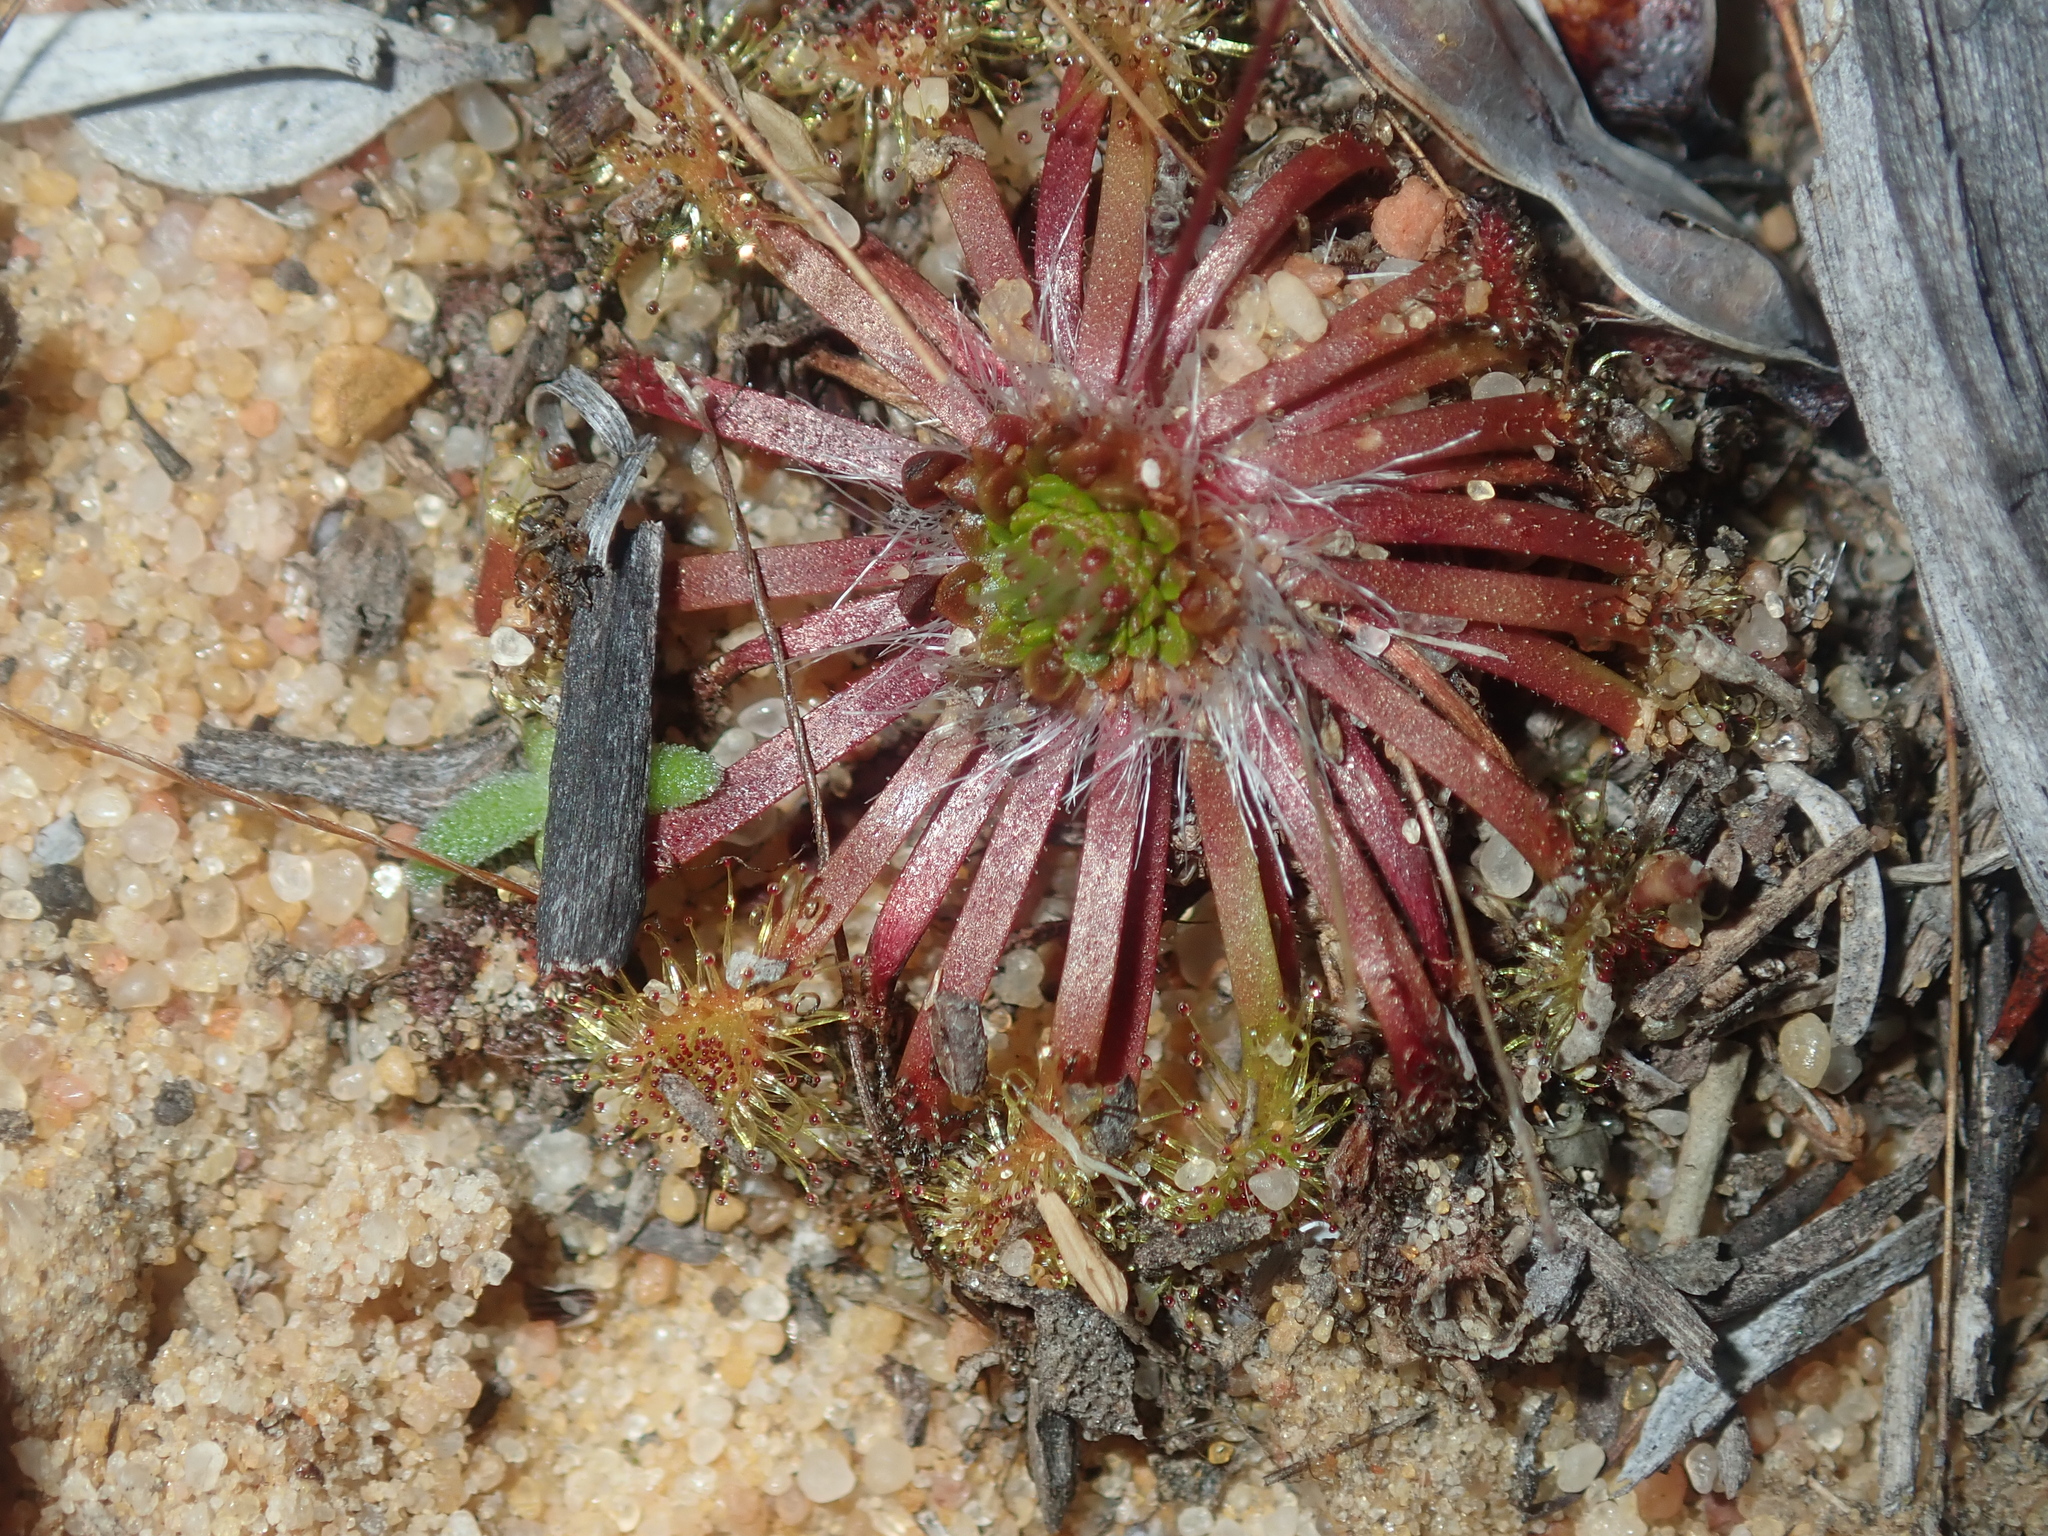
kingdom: Plantae
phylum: Tracheophyta
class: Magnoliopsida
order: Caryophyllales
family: Droseraceae
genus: Drosera
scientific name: Drosera nitidula
